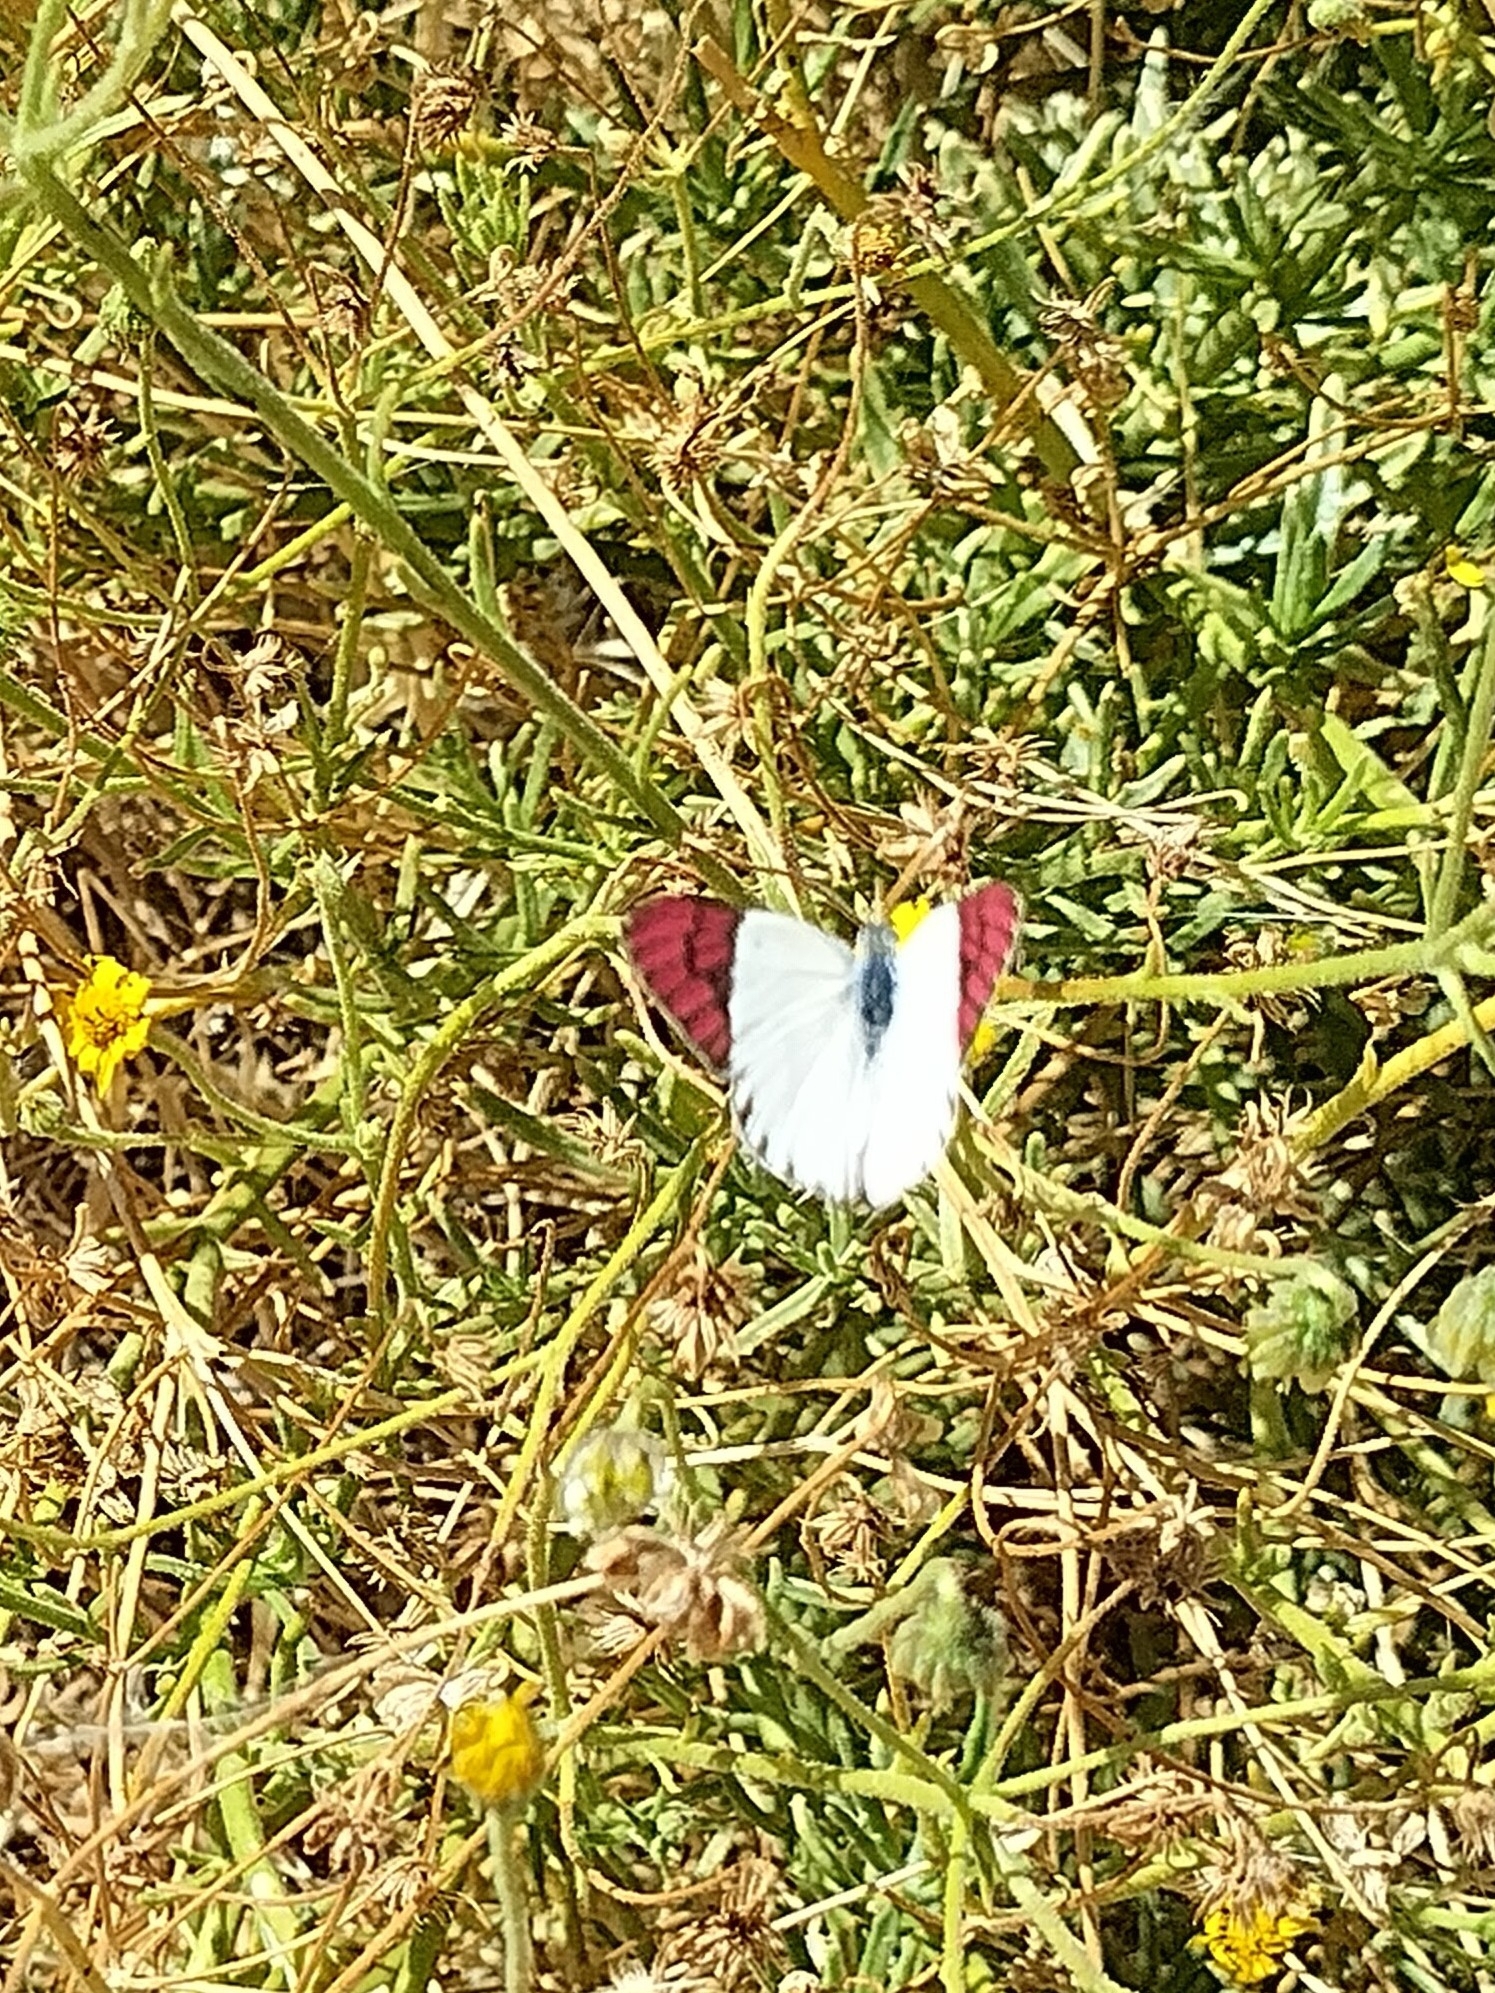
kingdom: Animalia
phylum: Arthropoda
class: Insecta
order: Lepidoptera
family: Pieridae
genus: Colotis
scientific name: Colotis celimene
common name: Lilac tip
